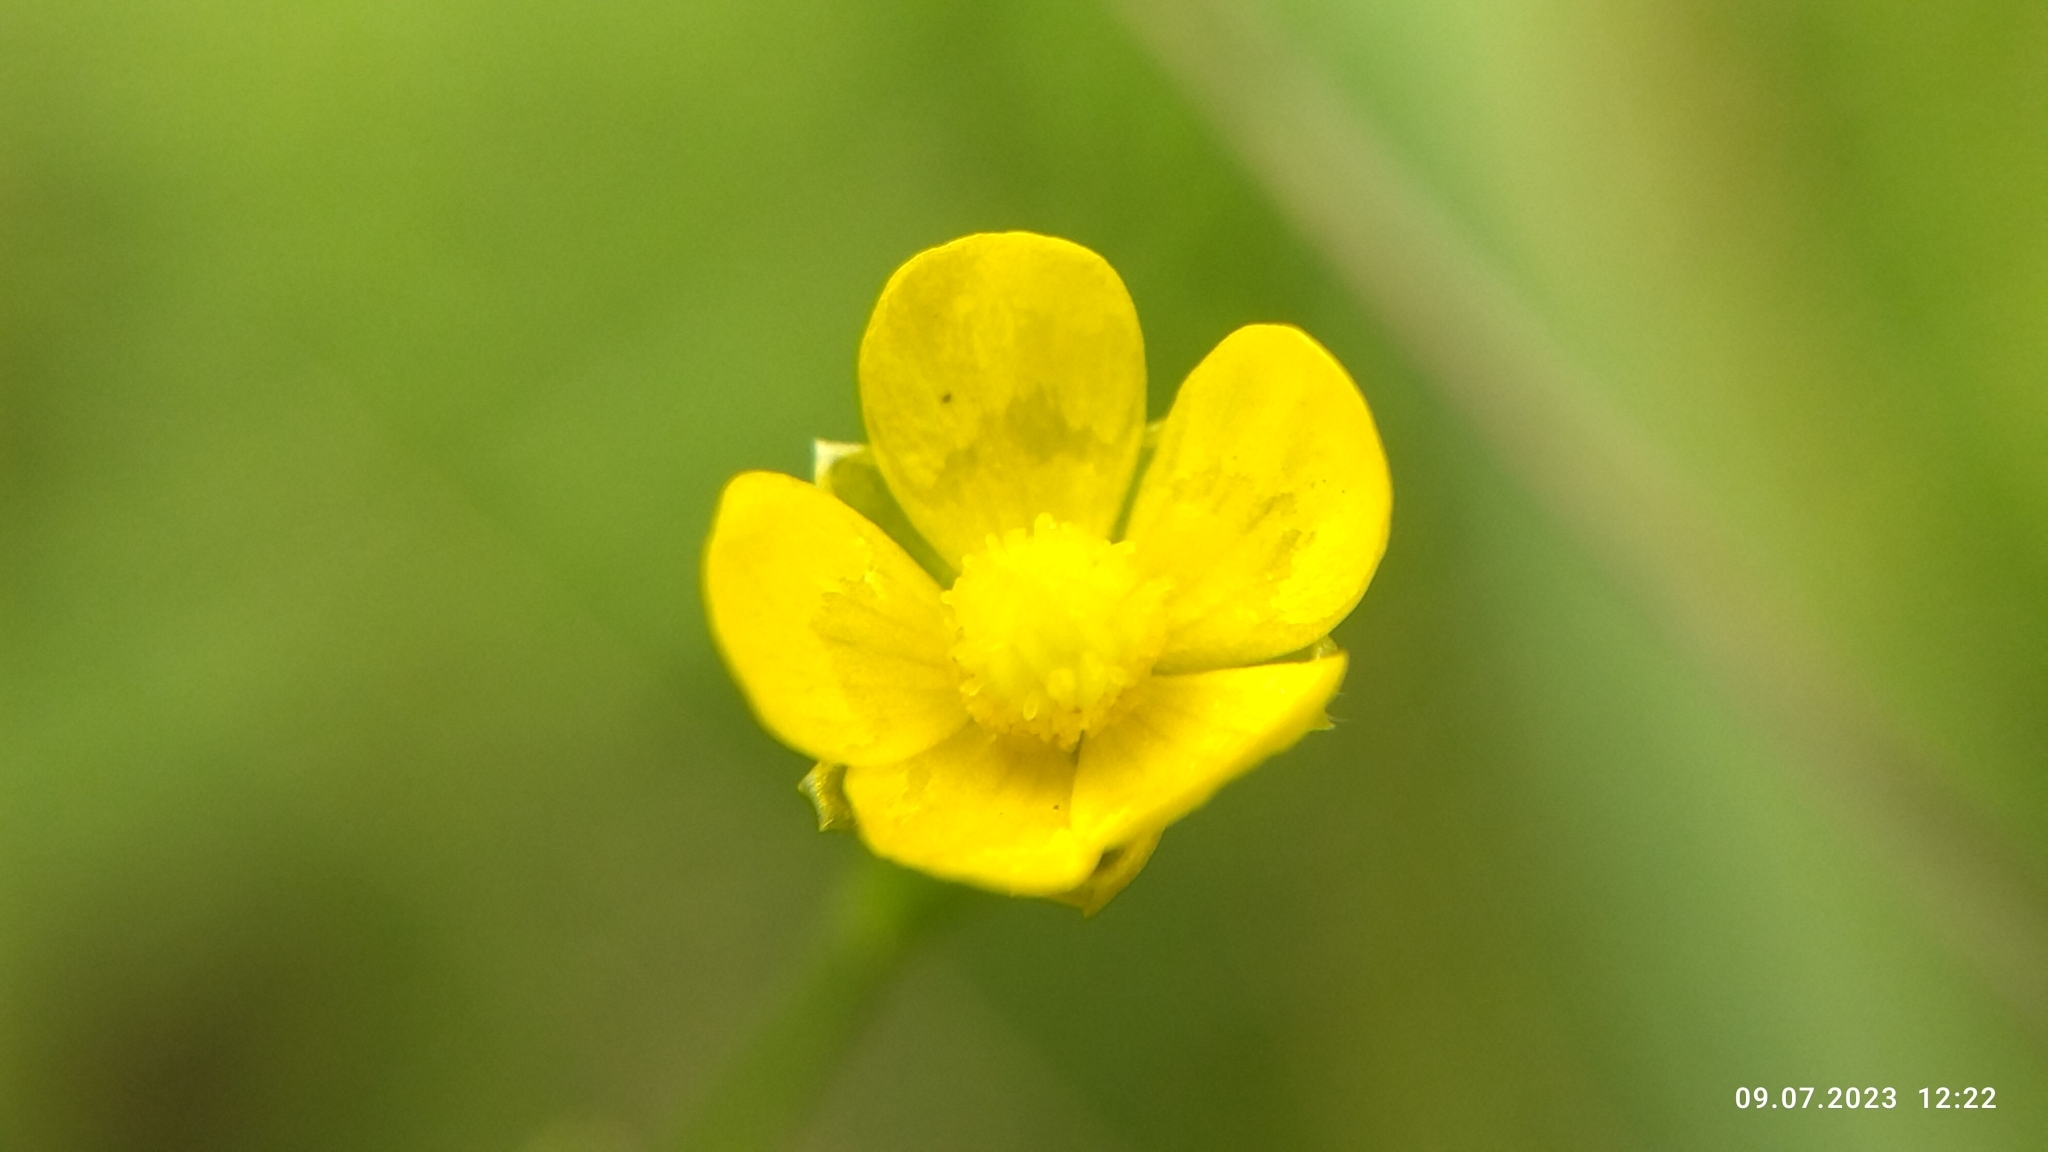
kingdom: Plantae
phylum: Tracheophyta
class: Magnoliopsida
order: Ranunculales
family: Ranunculaceae
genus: Ranunculus
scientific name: Ranunculus acris
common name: Meadow buttercup
